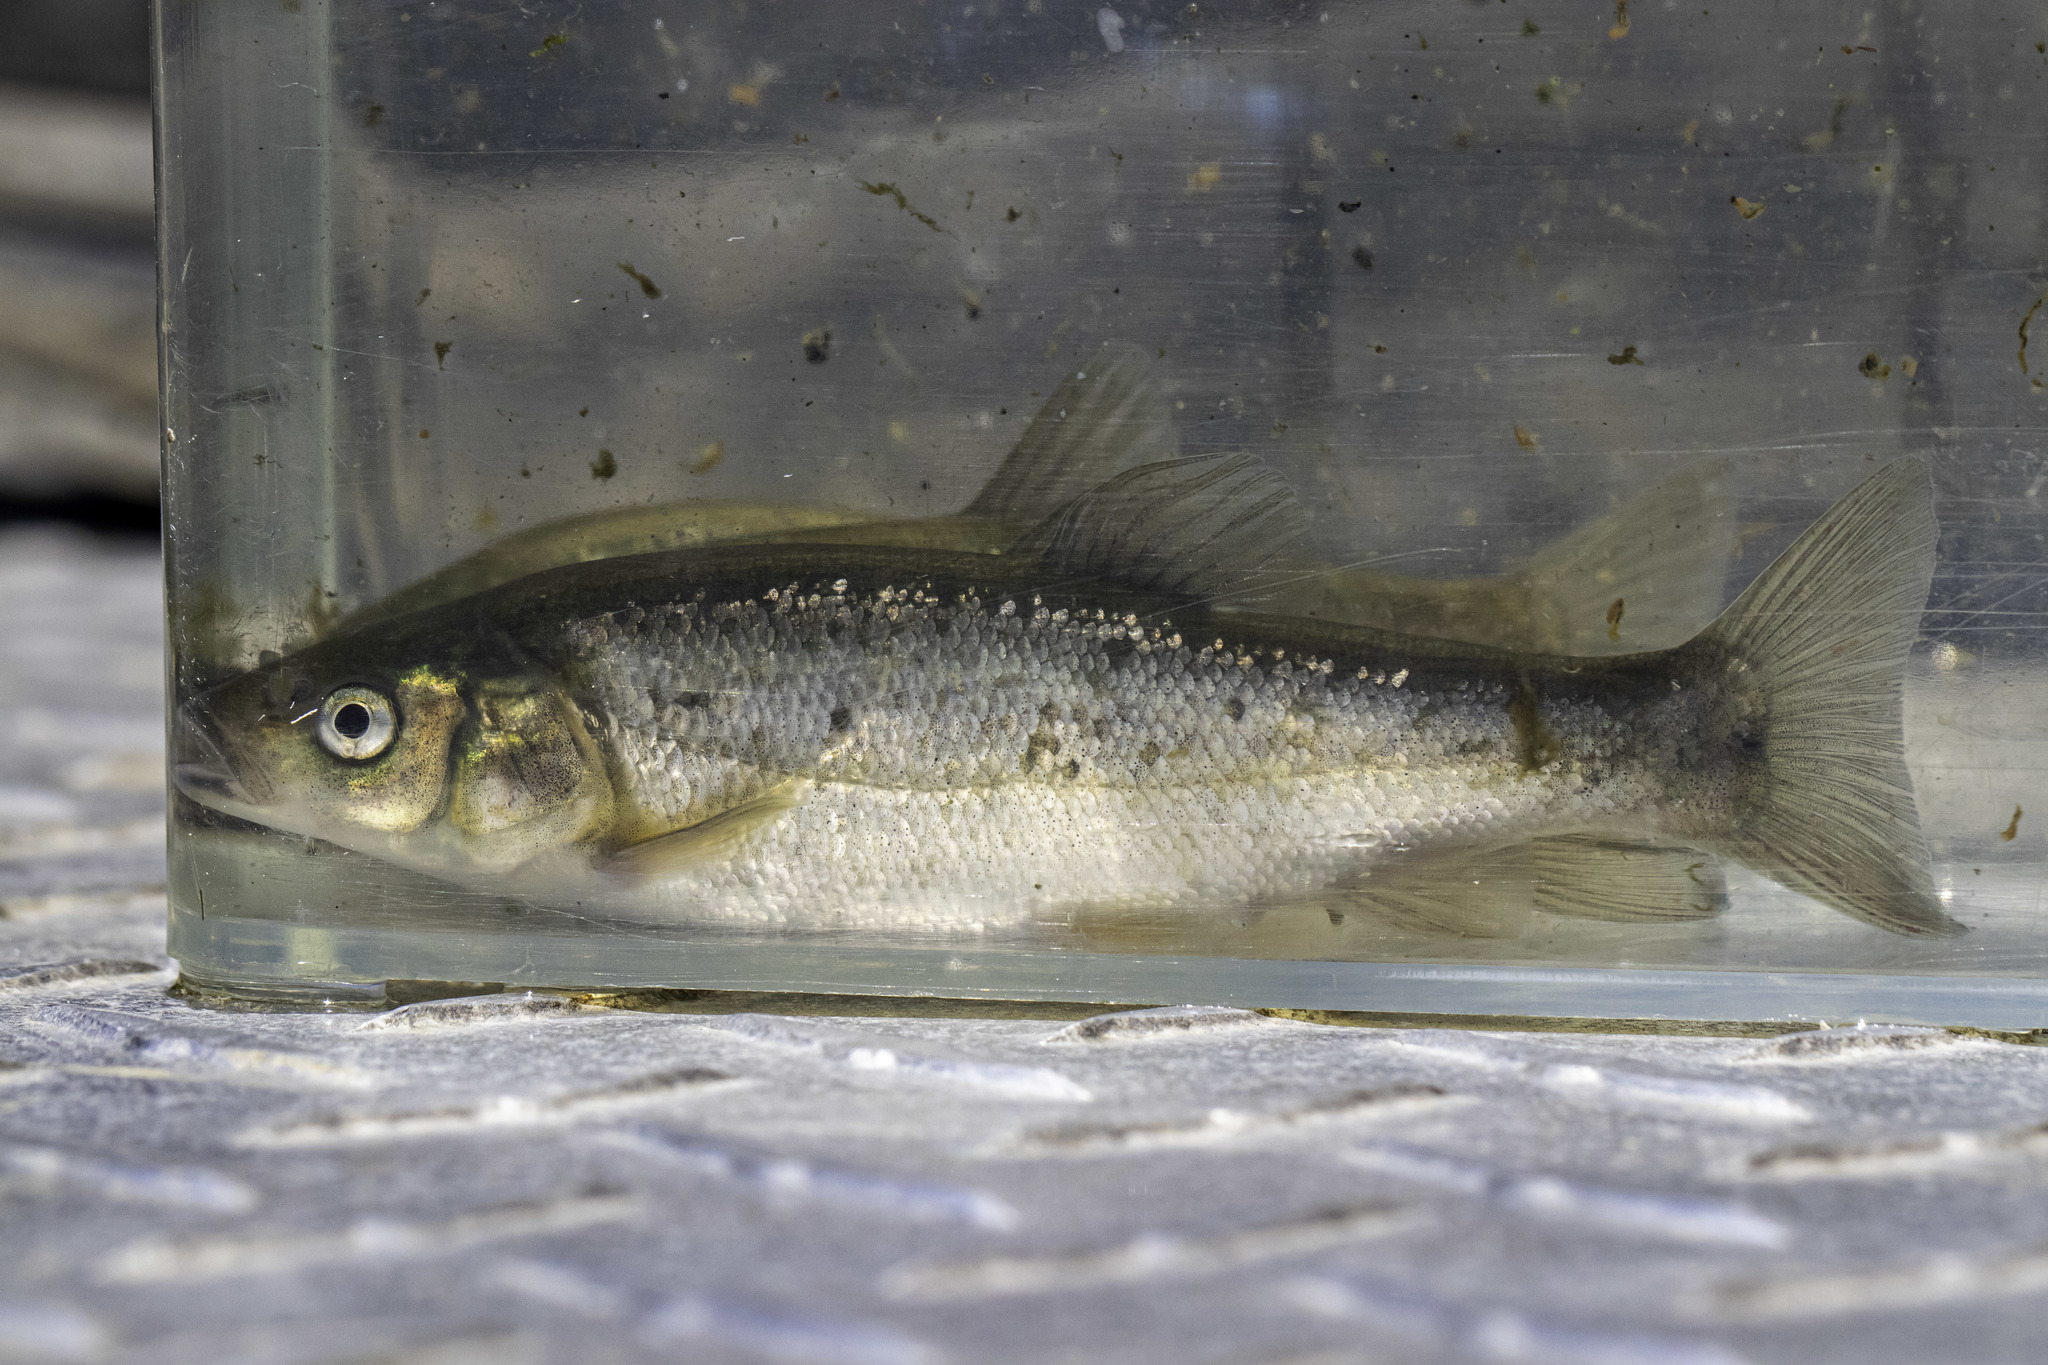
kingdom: Animalia
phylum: Chordata
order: Cypriniformes
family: Cyprinidae
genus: Gila
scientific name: Gila orcuttii
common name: Arroyo chub
